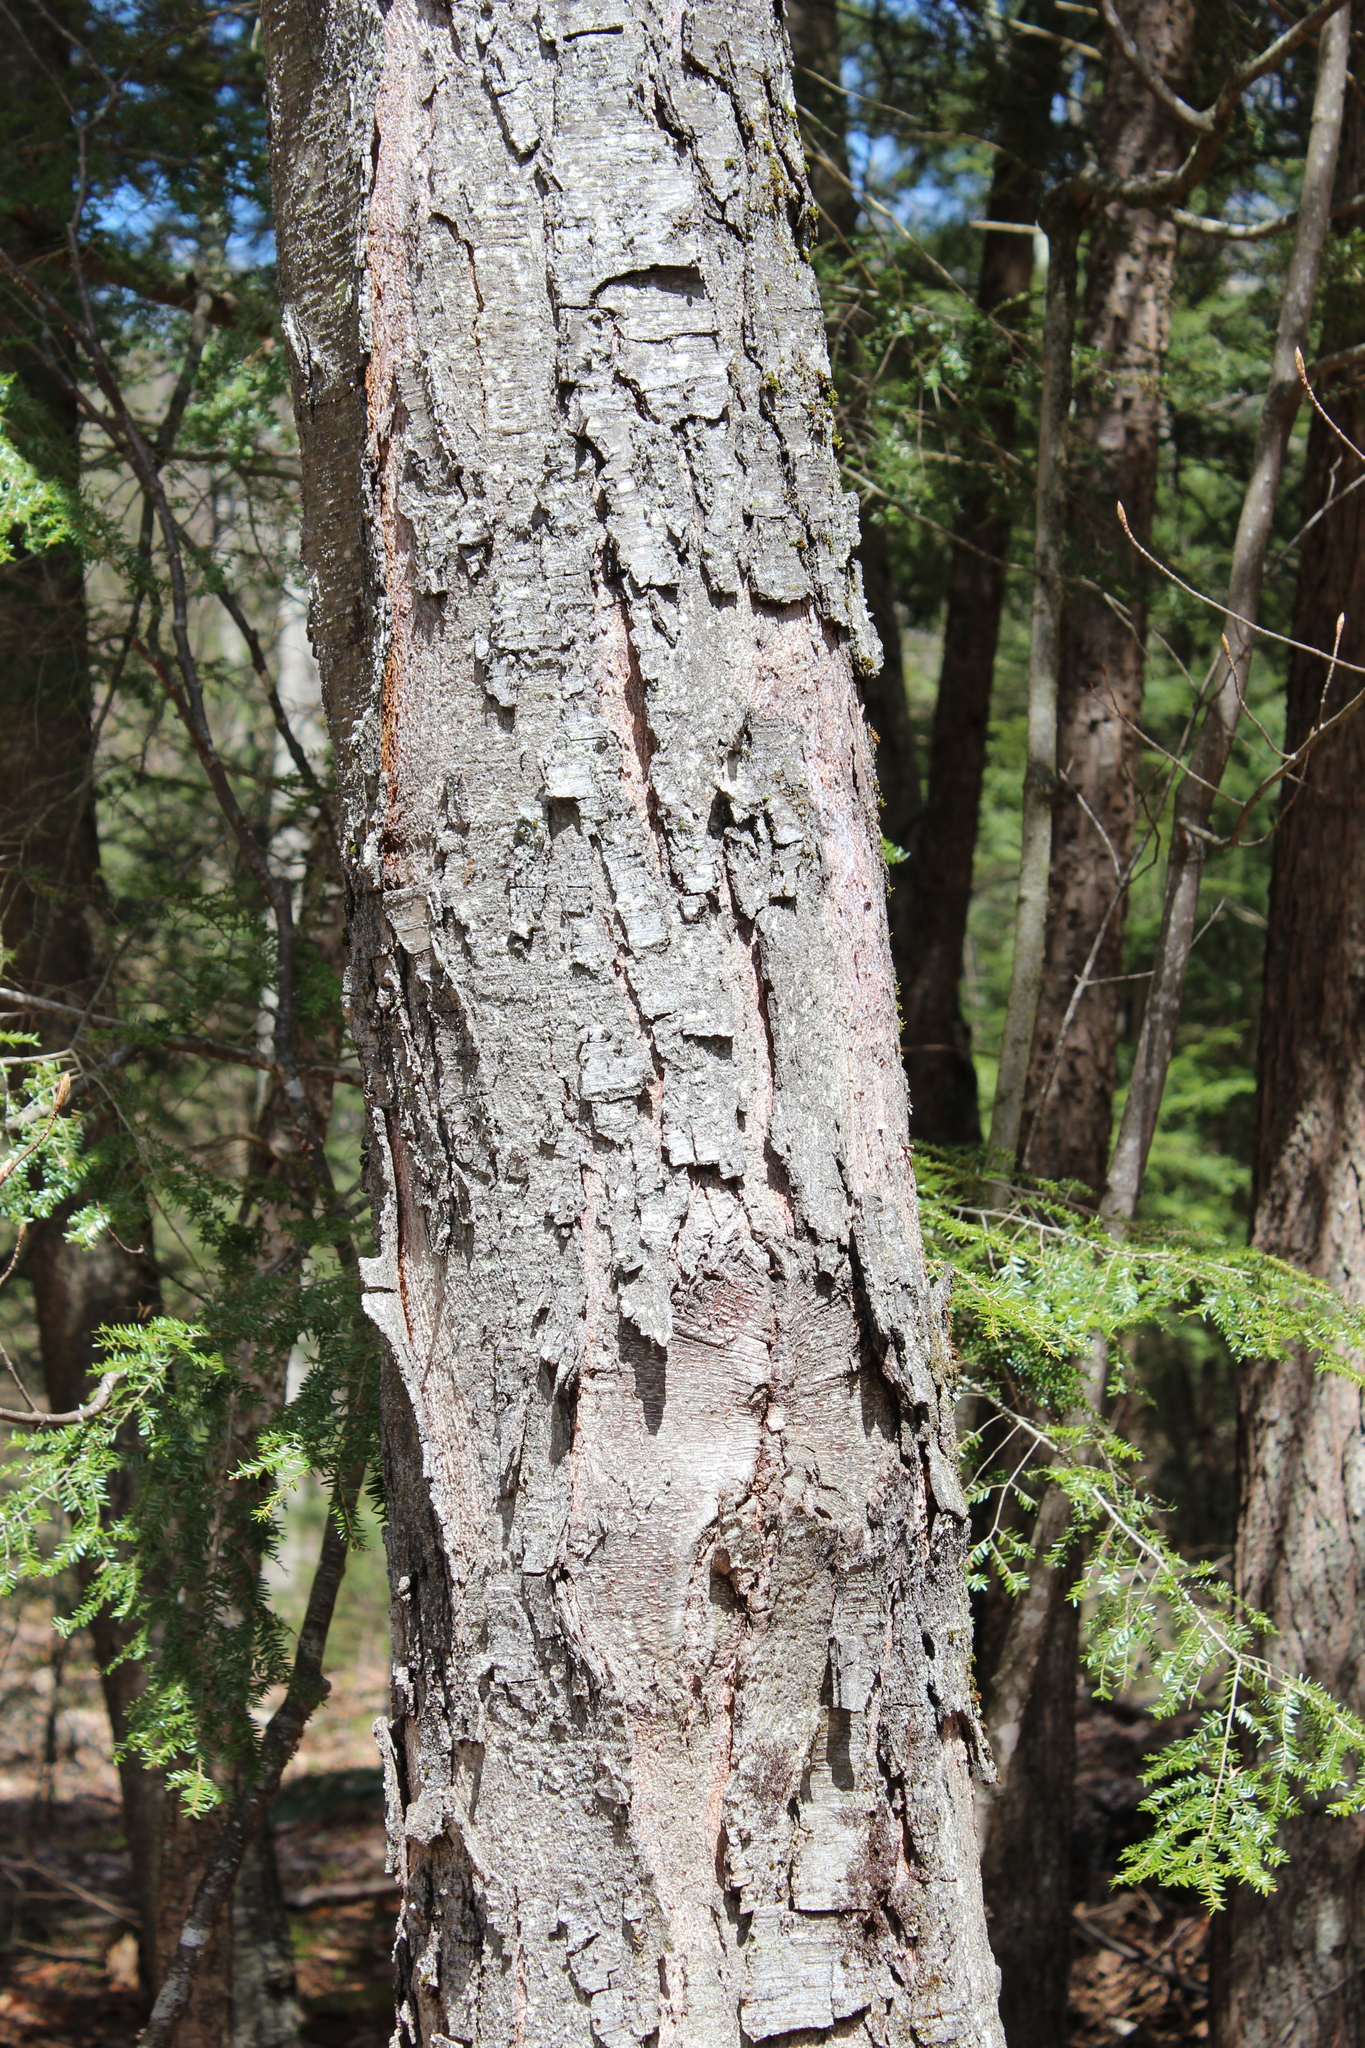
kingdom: Plantae
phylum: Tracheophyta
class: Magnoliopsida
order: Fagales
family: Betulaceae
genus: Betula
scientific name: Betula lenta
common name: Black birch
